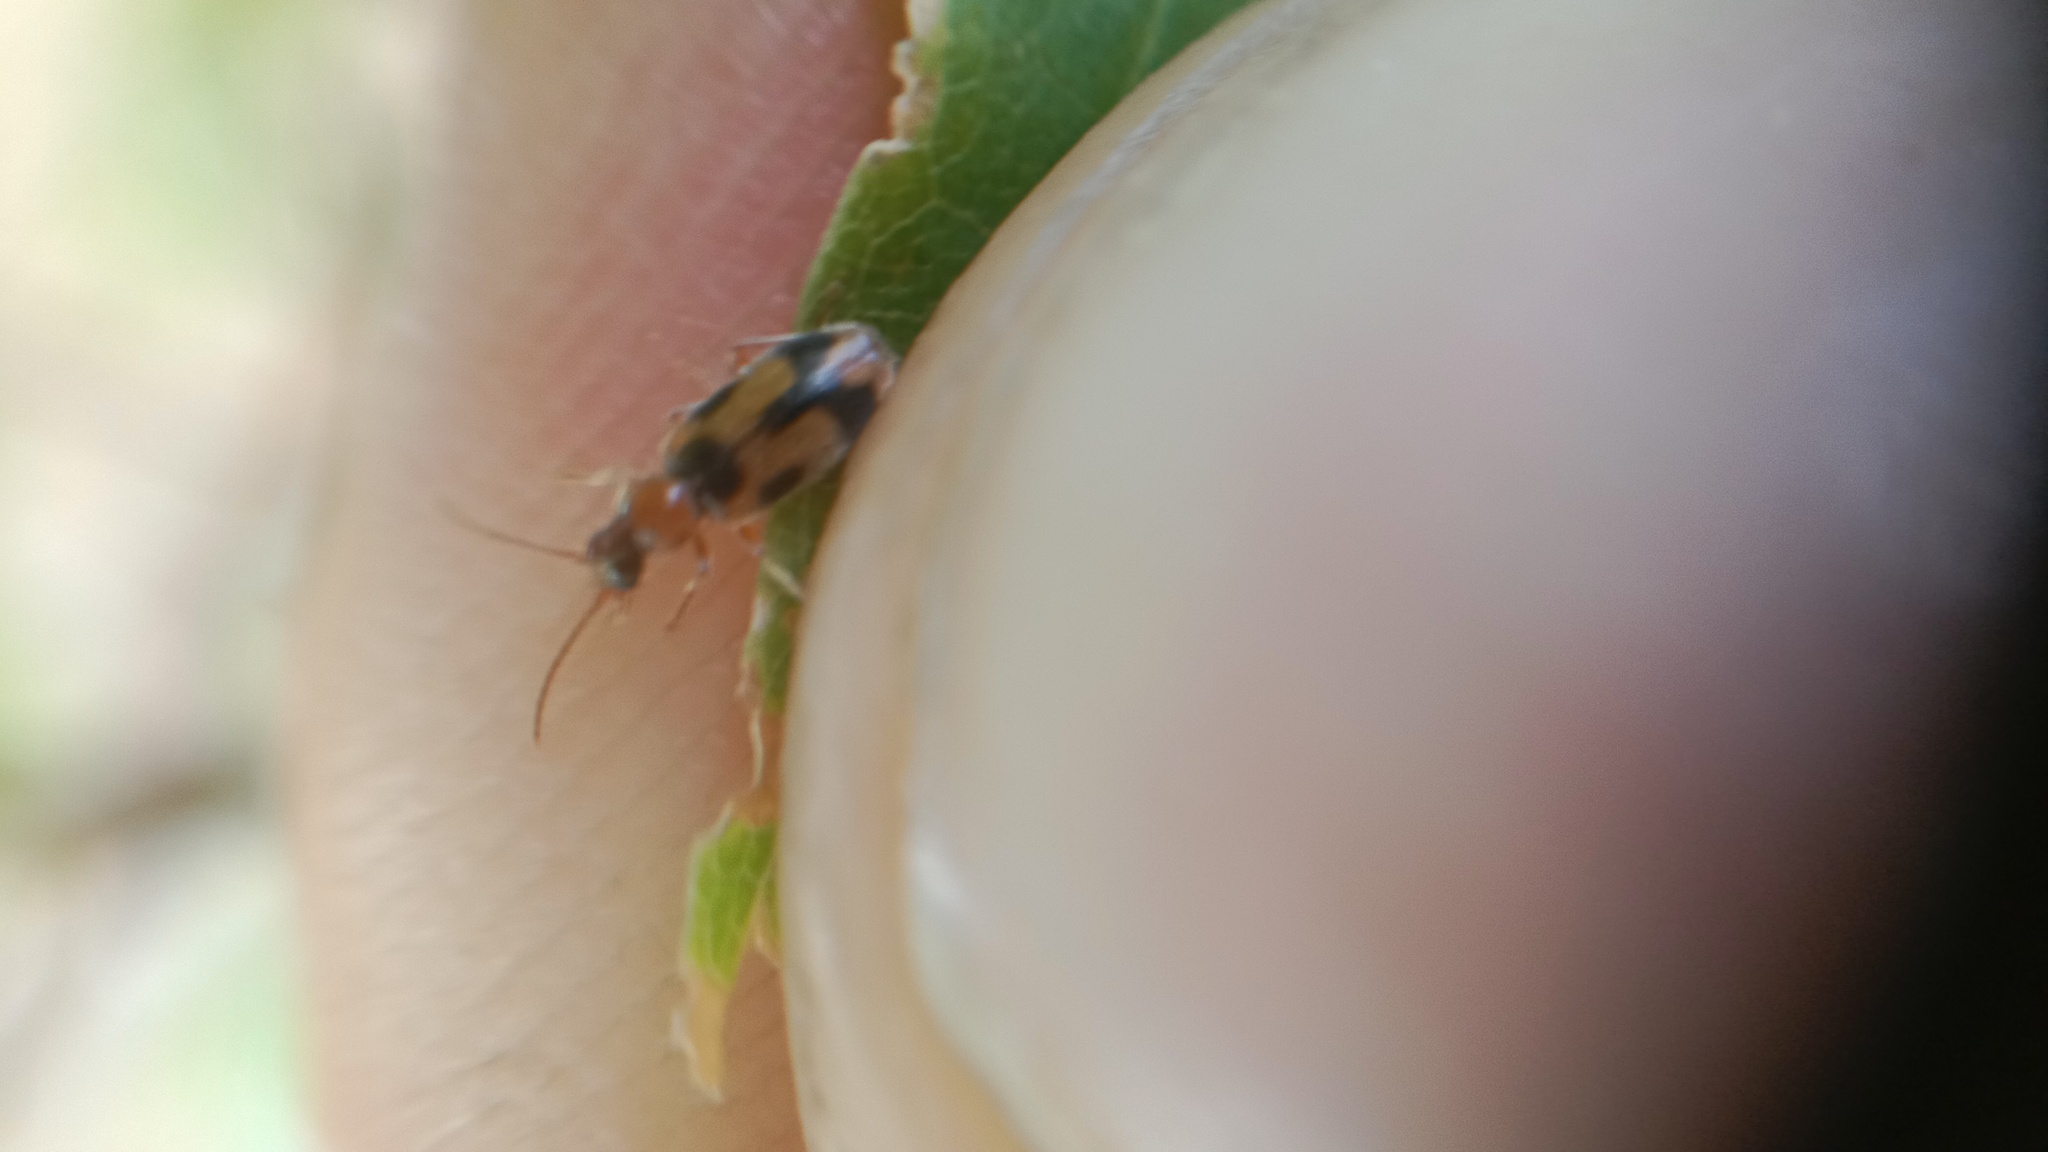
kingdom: Animalia
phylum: Arthropoda
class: Insecta
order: Coleoptera
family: Anthicidae
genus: Notoxus
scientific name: Notoxus monoceros
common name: Monoceros beetle
